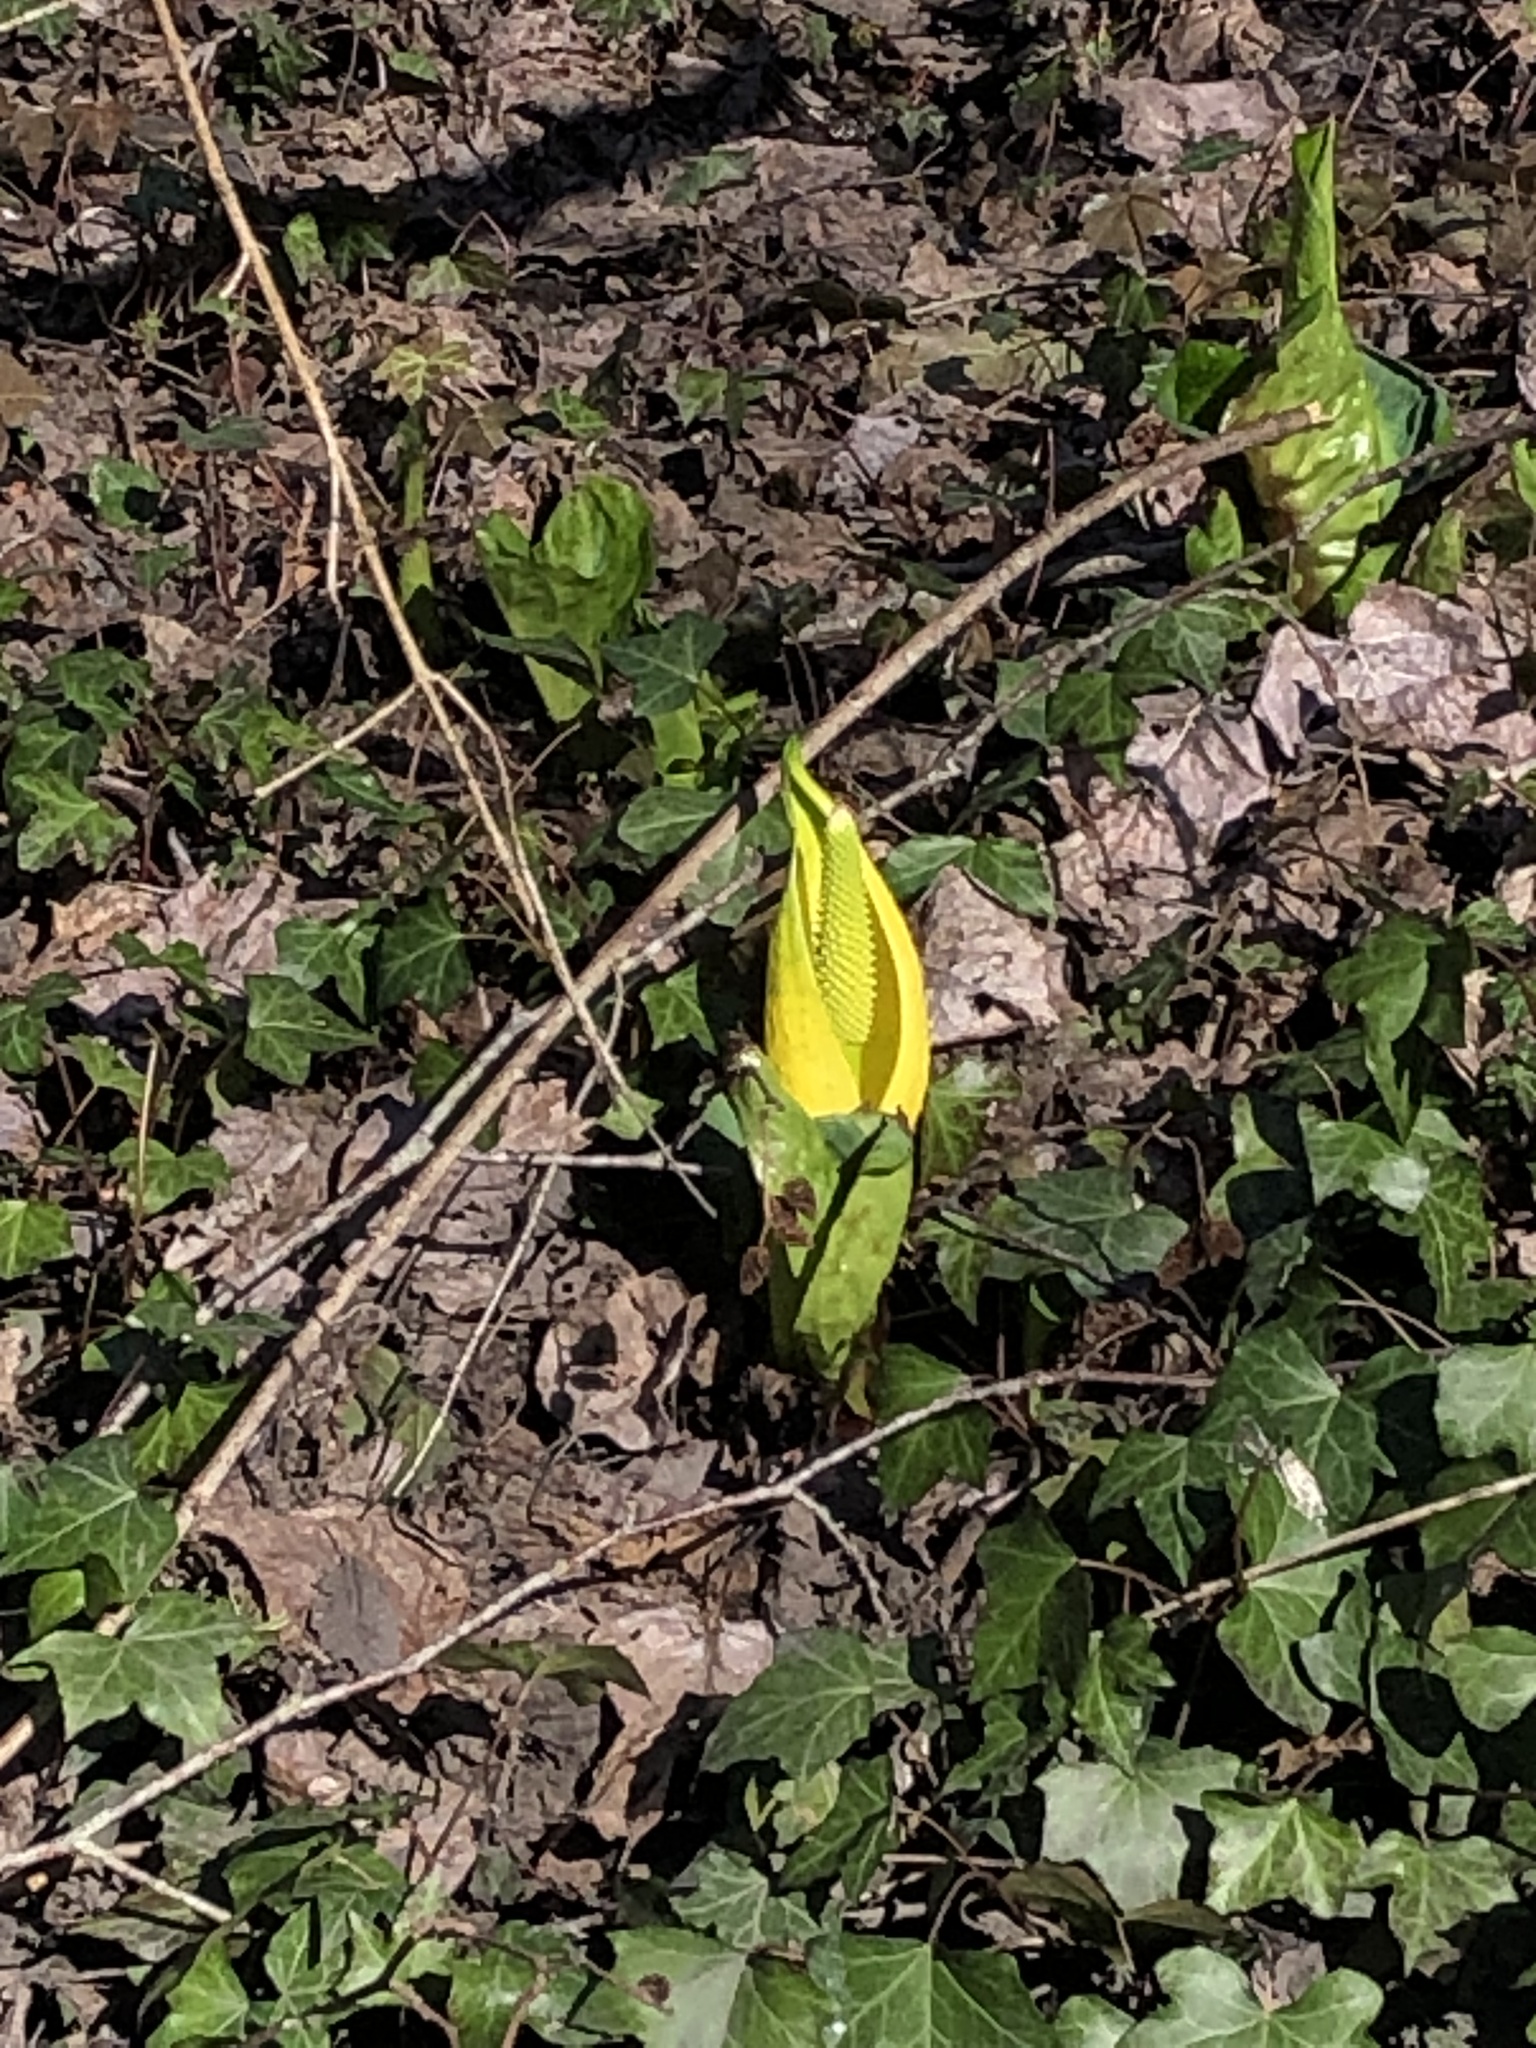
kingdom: Plantae
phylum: Tracheophyta
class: Liliopsida
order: Alismatales
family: Araceae
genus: Lysichiton
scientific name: Lysichiton americanus
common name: American skunk cabbage
